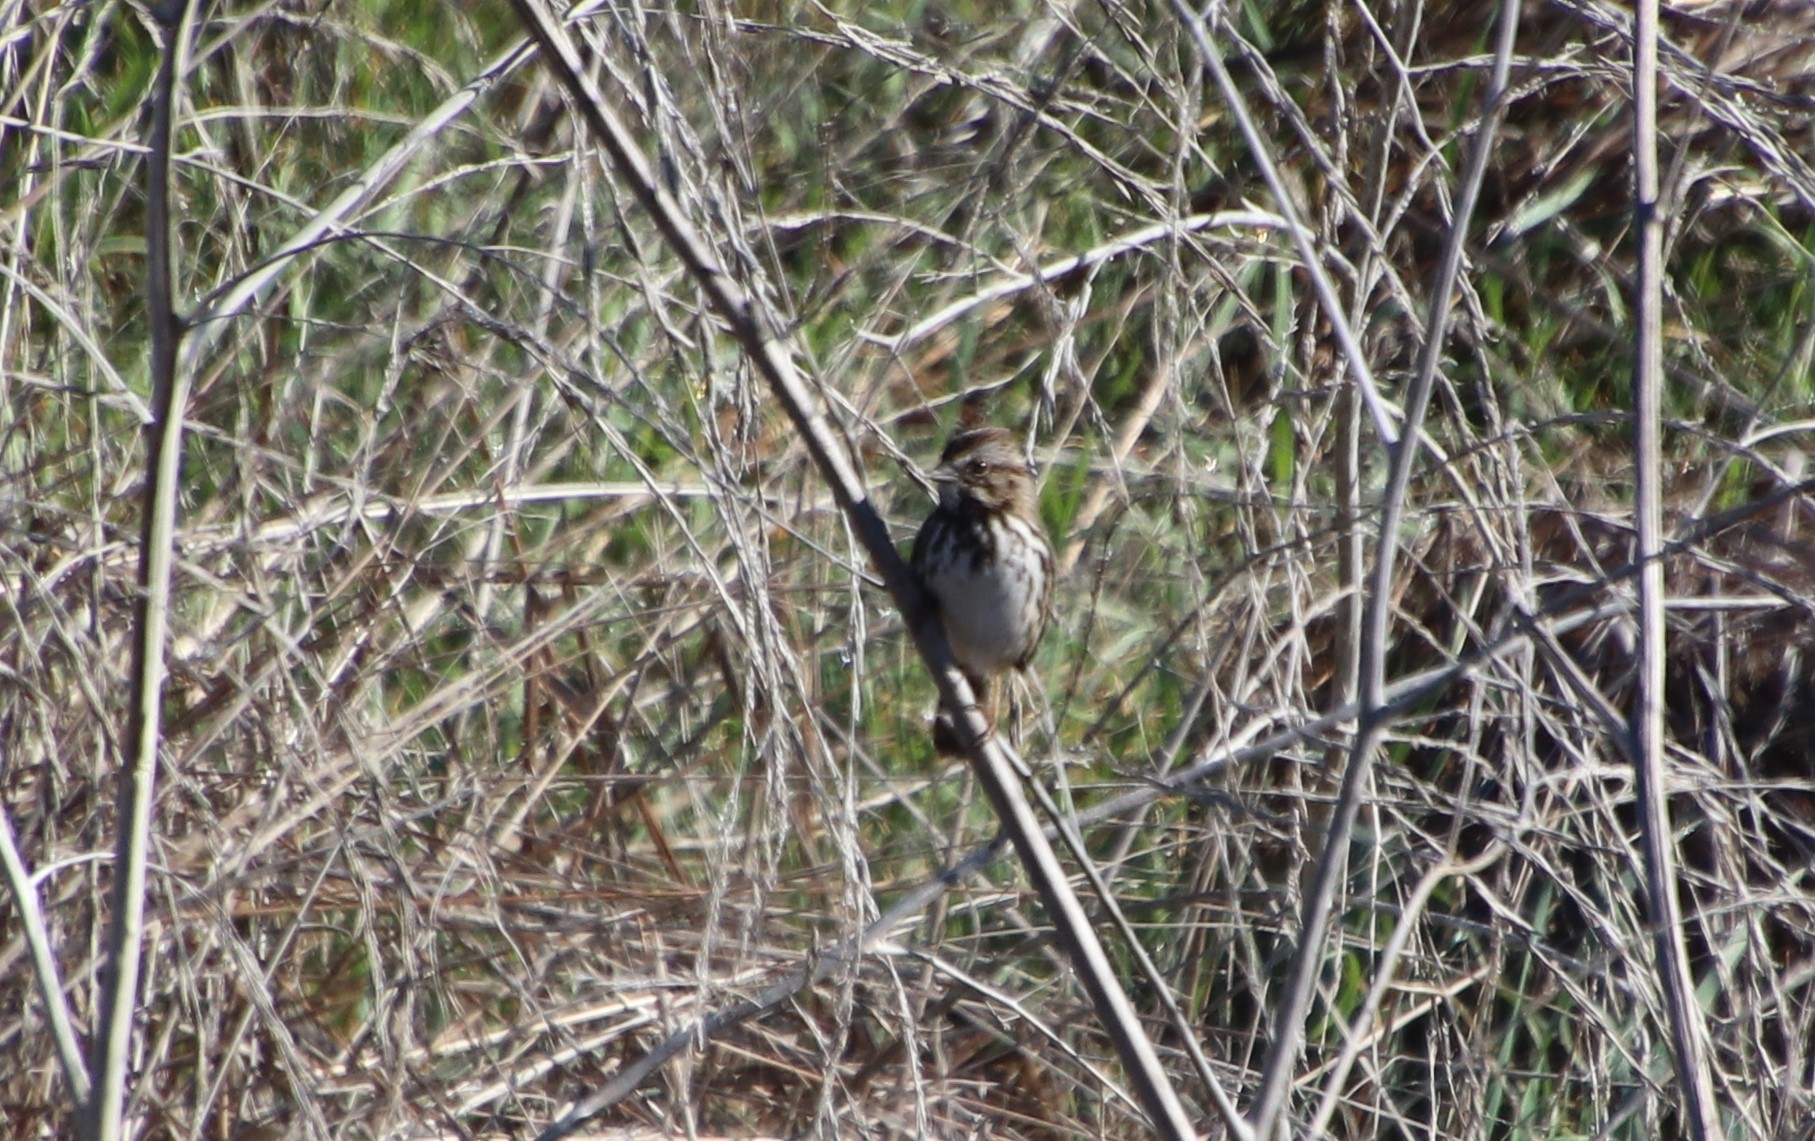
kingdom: Animalia
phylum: Chordata
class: Aves
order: Passeriformes
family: Passerellidae
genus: Melospiza
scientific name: Melospiza melodia
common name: Song sparrow
